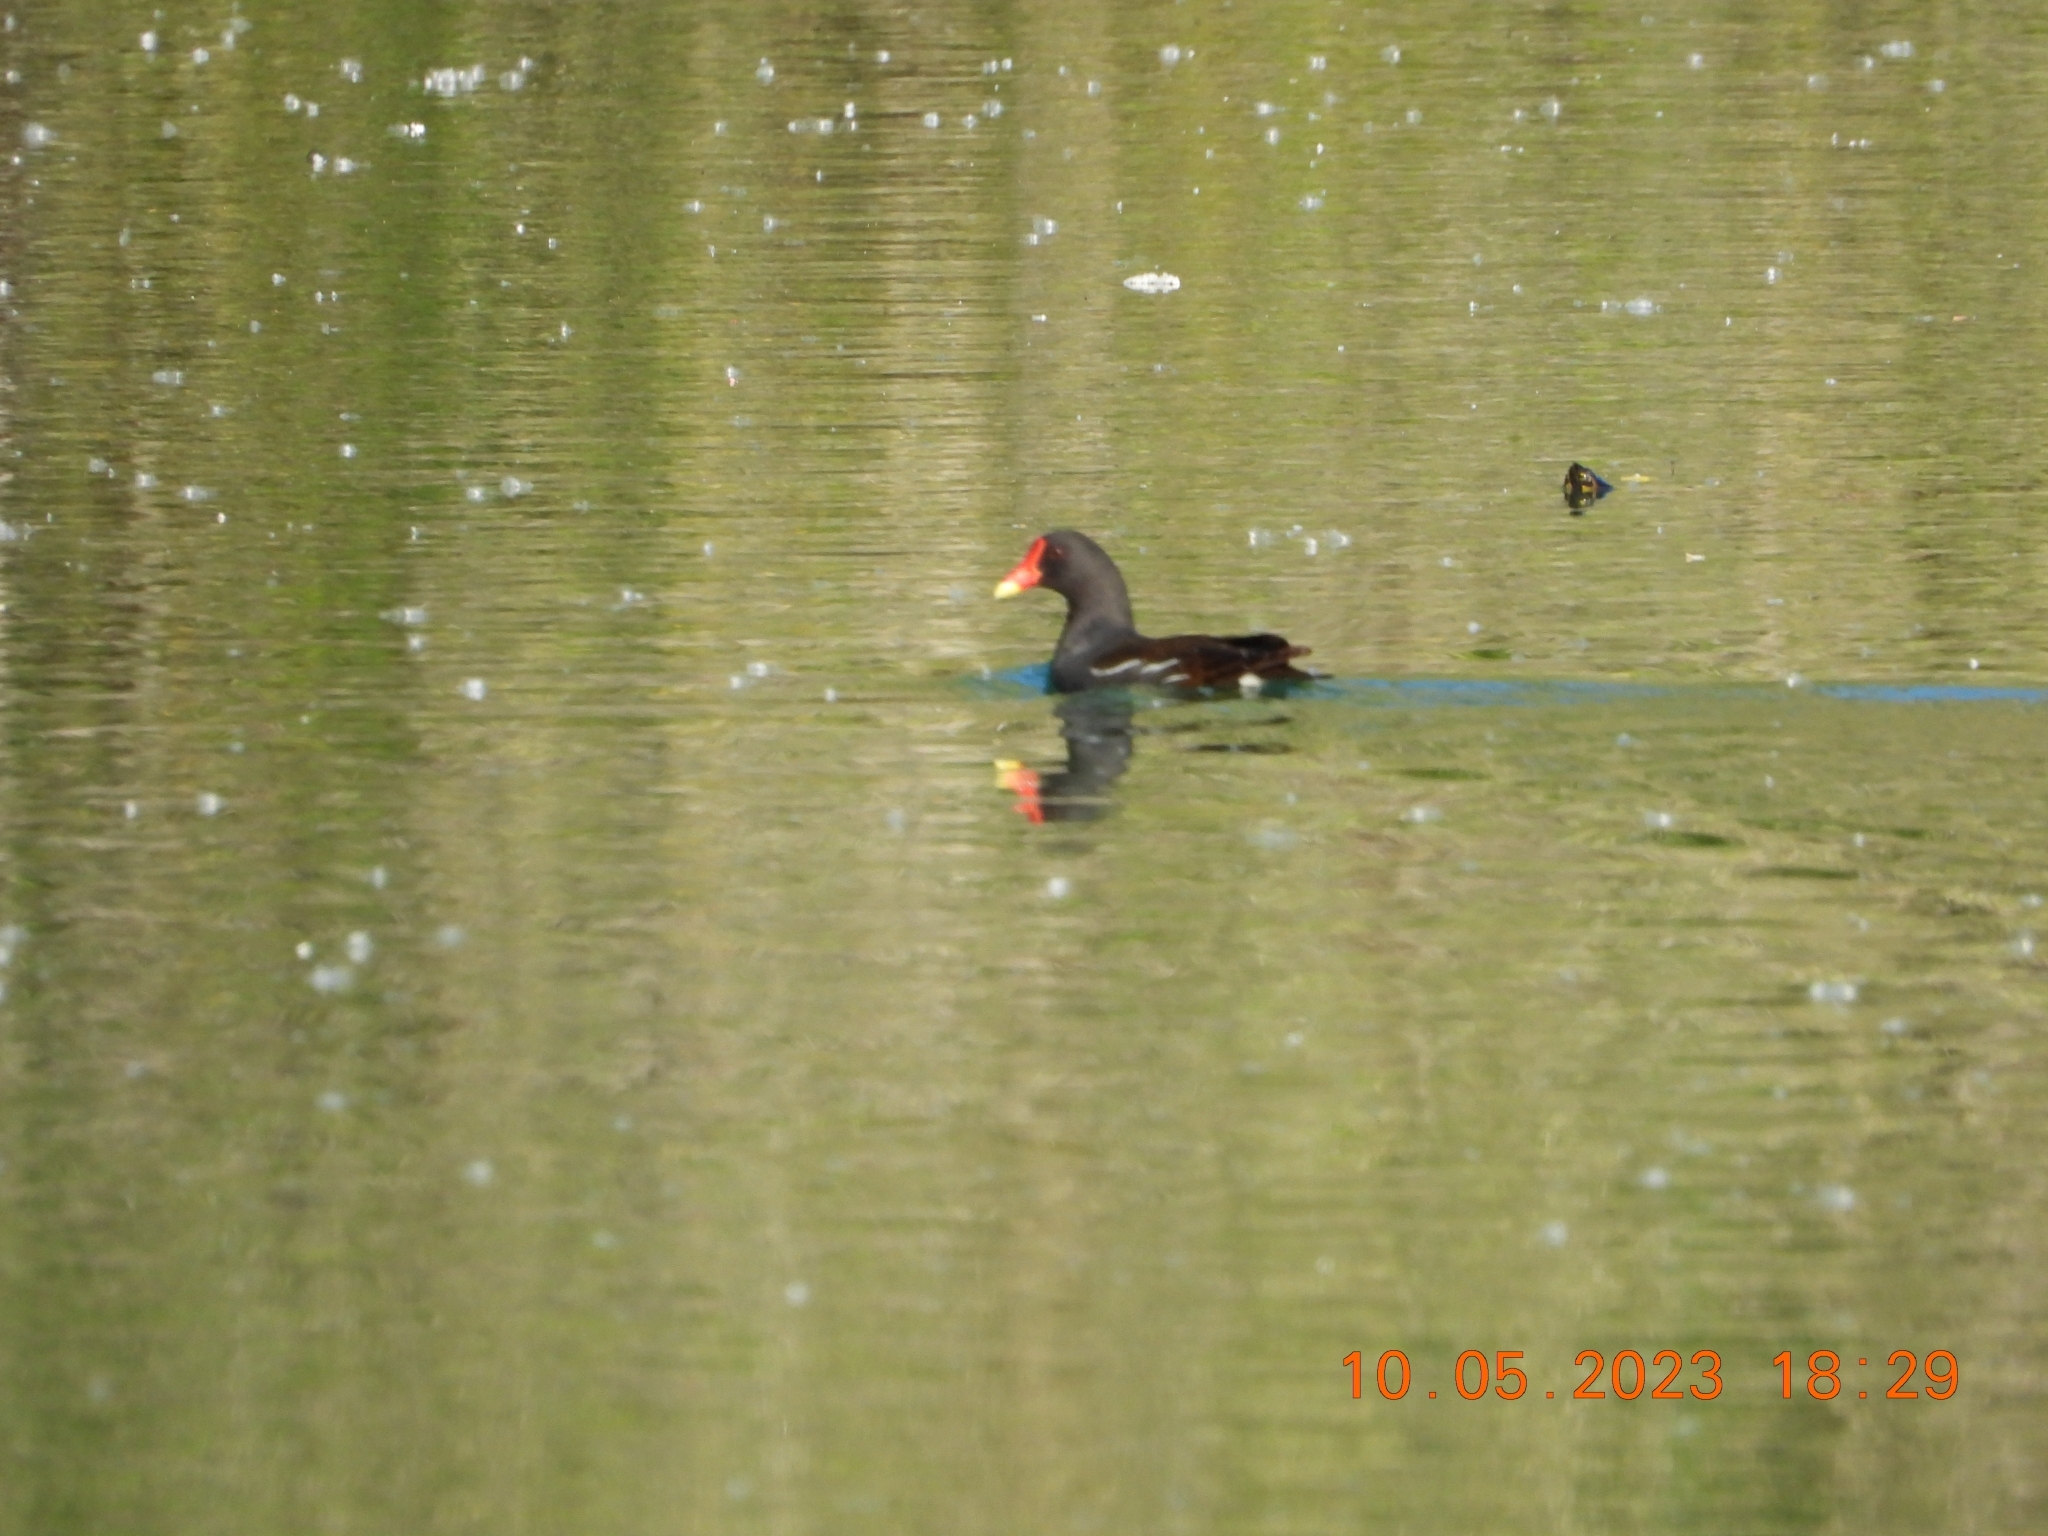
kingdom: Animalia
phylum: Chordata
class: Aves
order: Gruiformes
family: Rallidae
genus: Gallinula
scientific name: Gallinula chloropus
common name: Common moorhen
